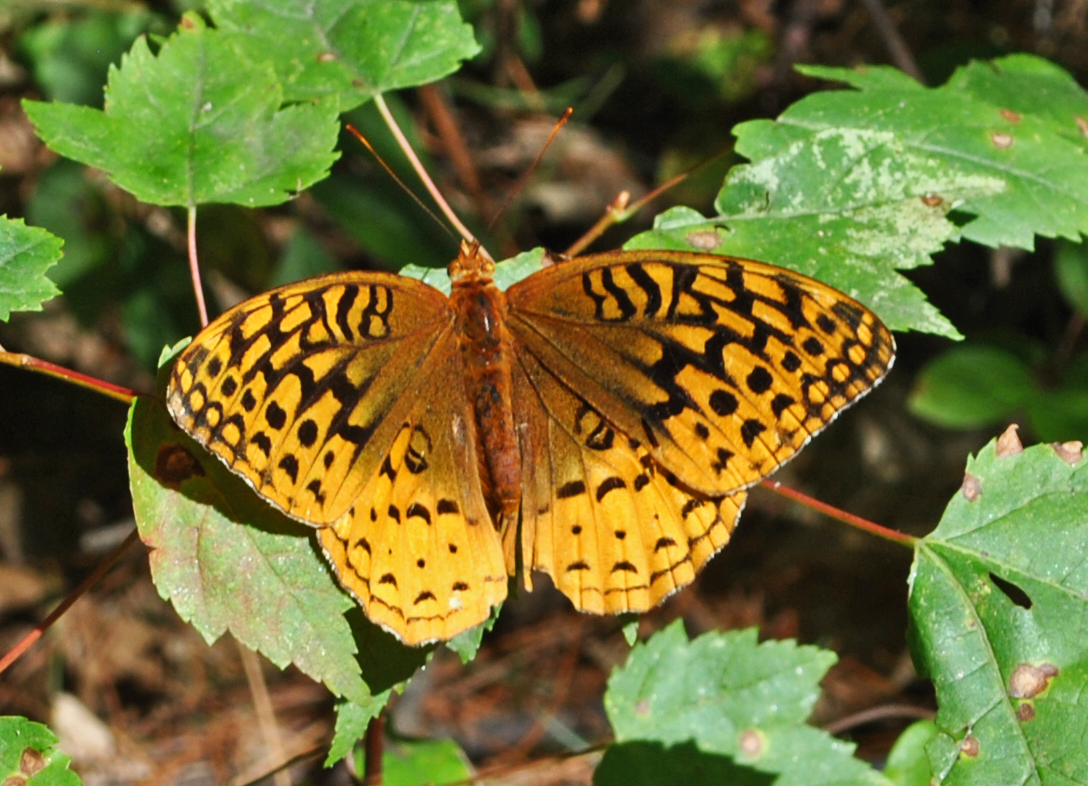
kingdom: Animalia
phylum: Arthropoda
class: Insecta
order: Lepidoptera
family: Nymphalidae
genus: Speyeria
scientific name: Speyeria cybele
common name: Great spangled fritillary
